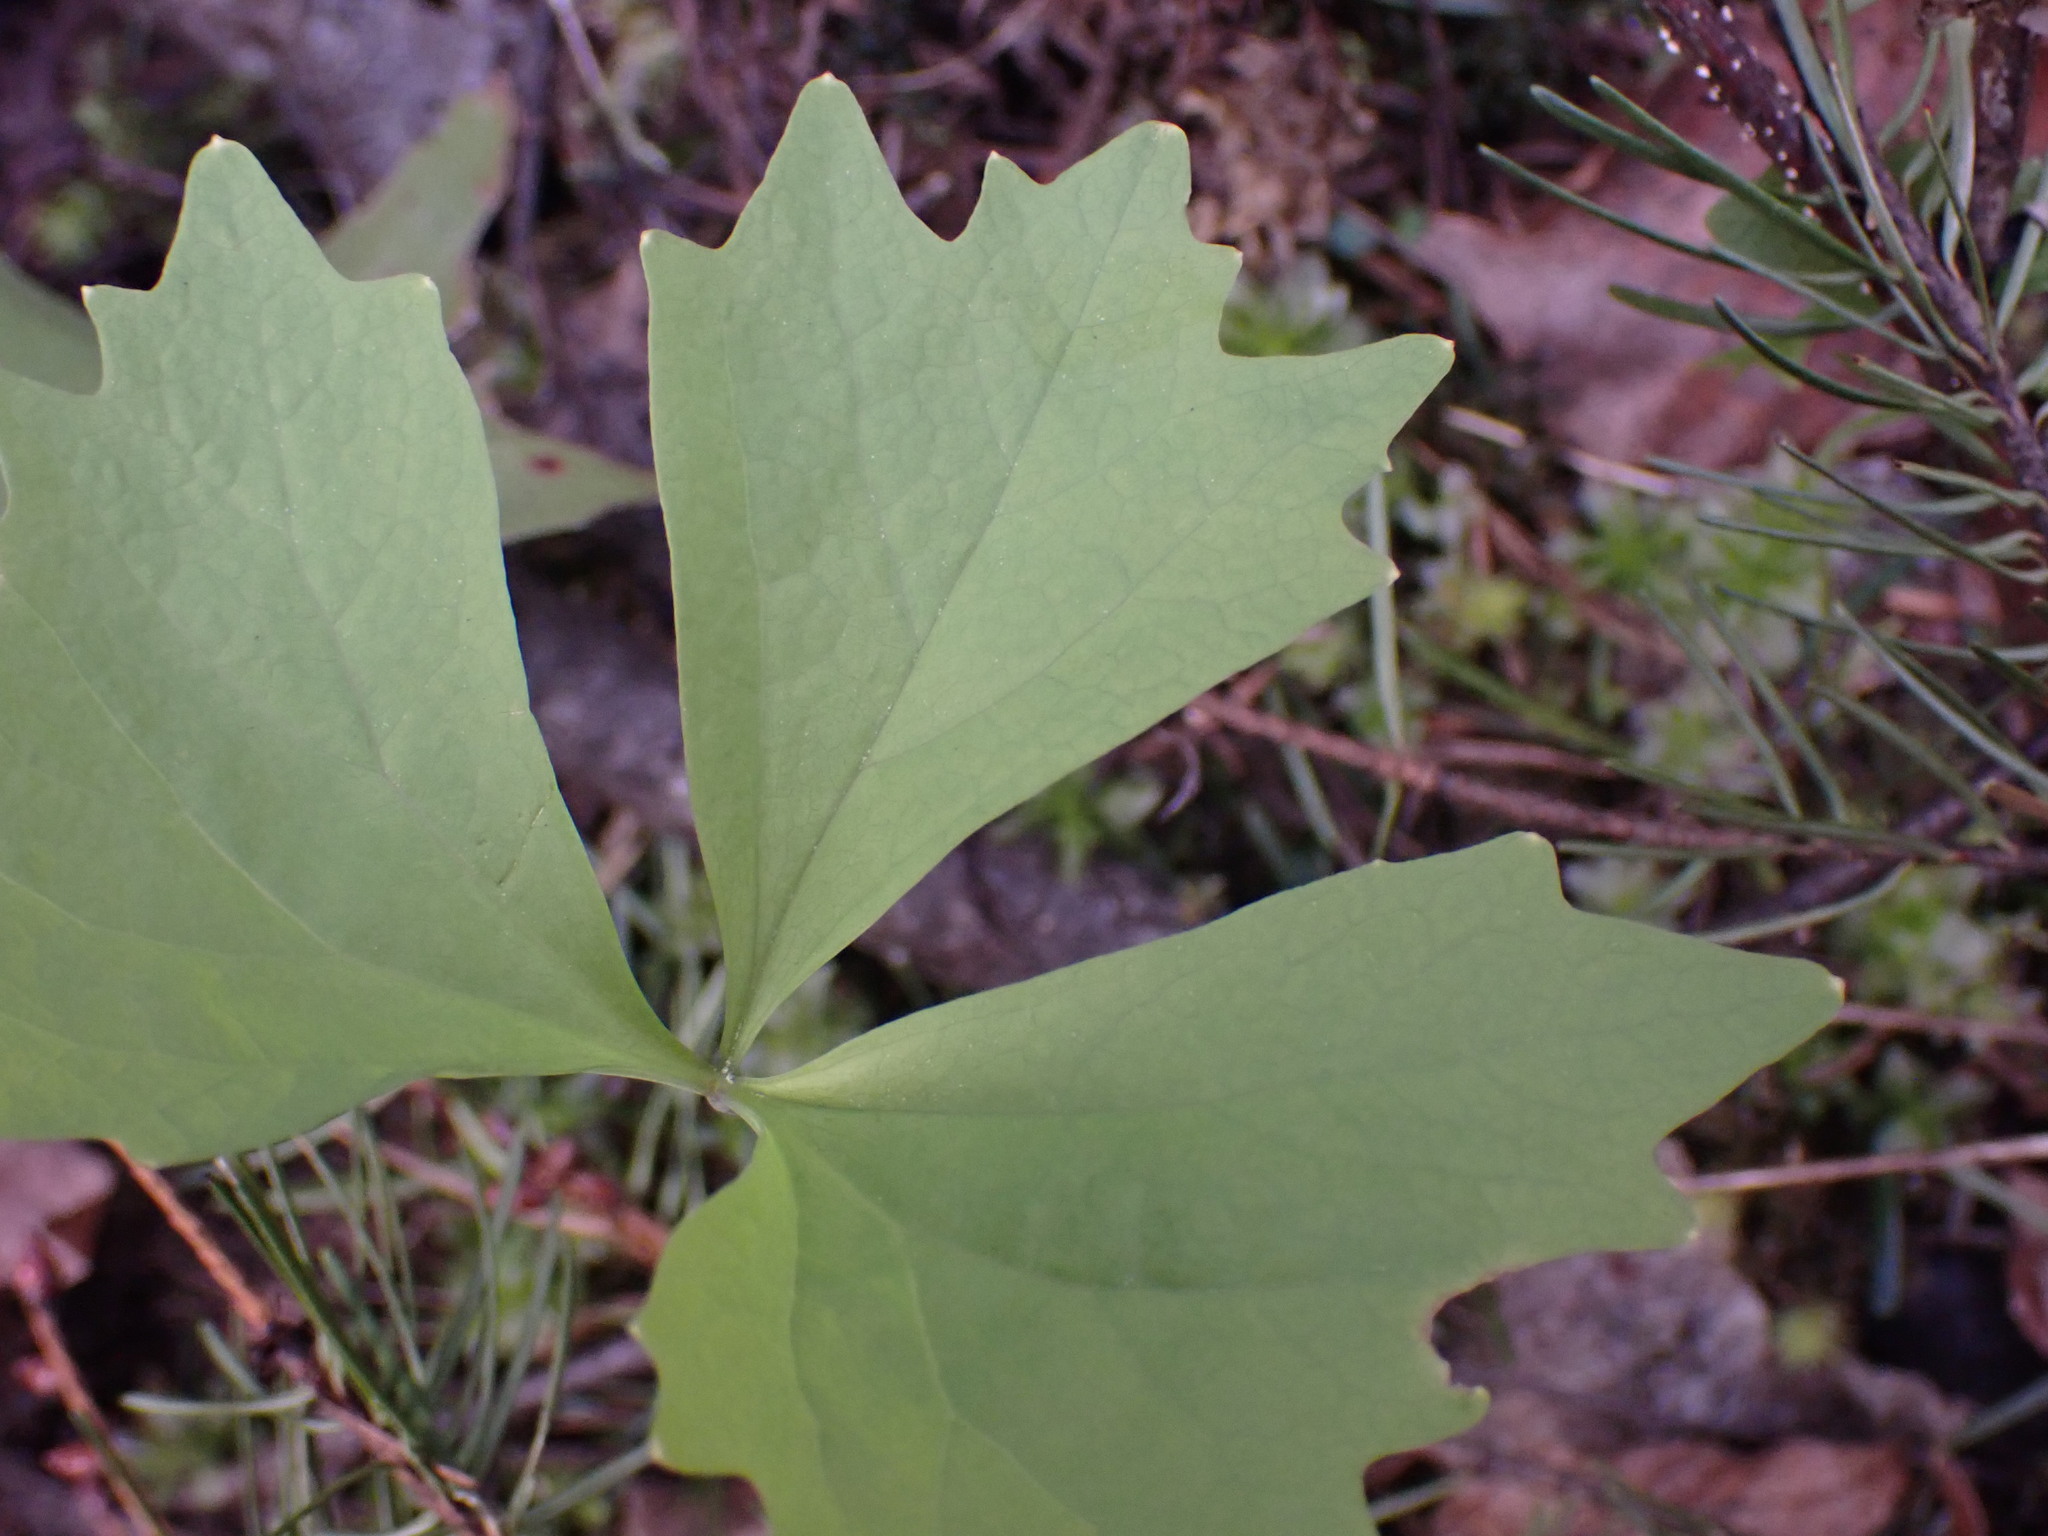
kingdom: Plantae
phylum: Tracheophyta
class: Magnoliopsida
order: Ranunculales
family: Berberidaceae
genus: Achlys
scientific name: Achlys triphylla
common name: Vanilla-leaf
